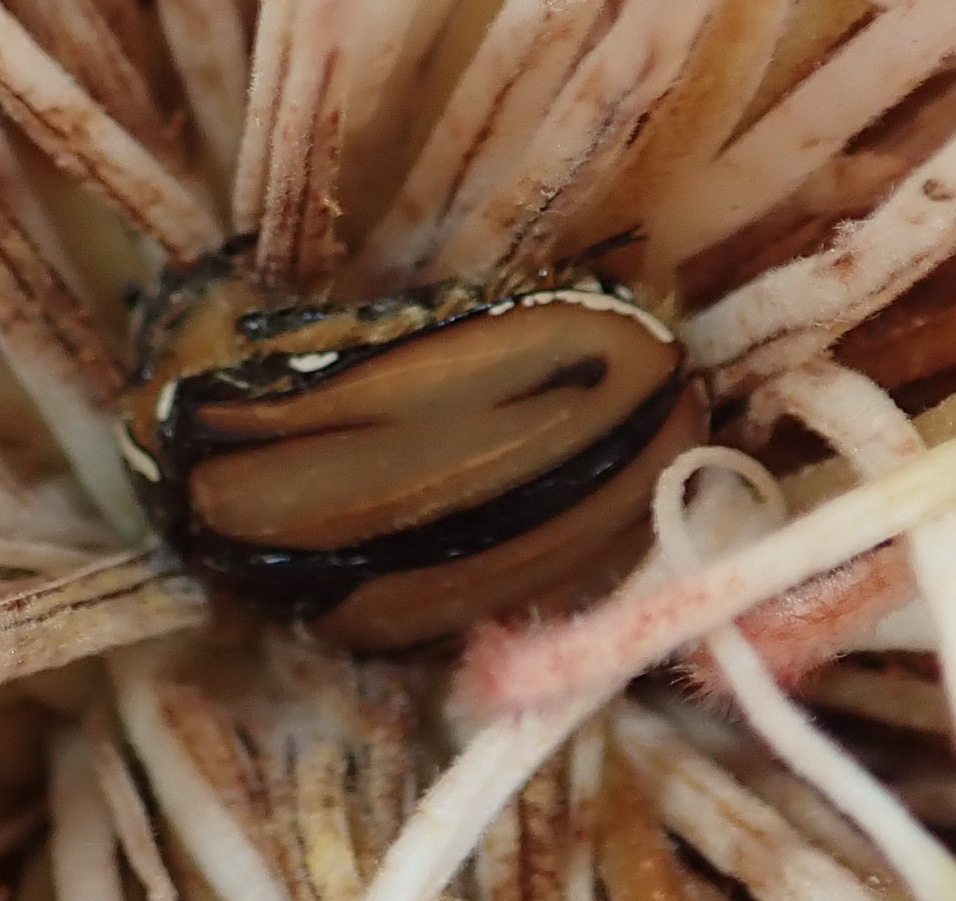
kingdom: Animalia
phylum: Arthropoda
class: Insecta
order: Coleoptera
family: Scarabaeidae
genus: Trichostetha
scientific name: Trichostetha signata
